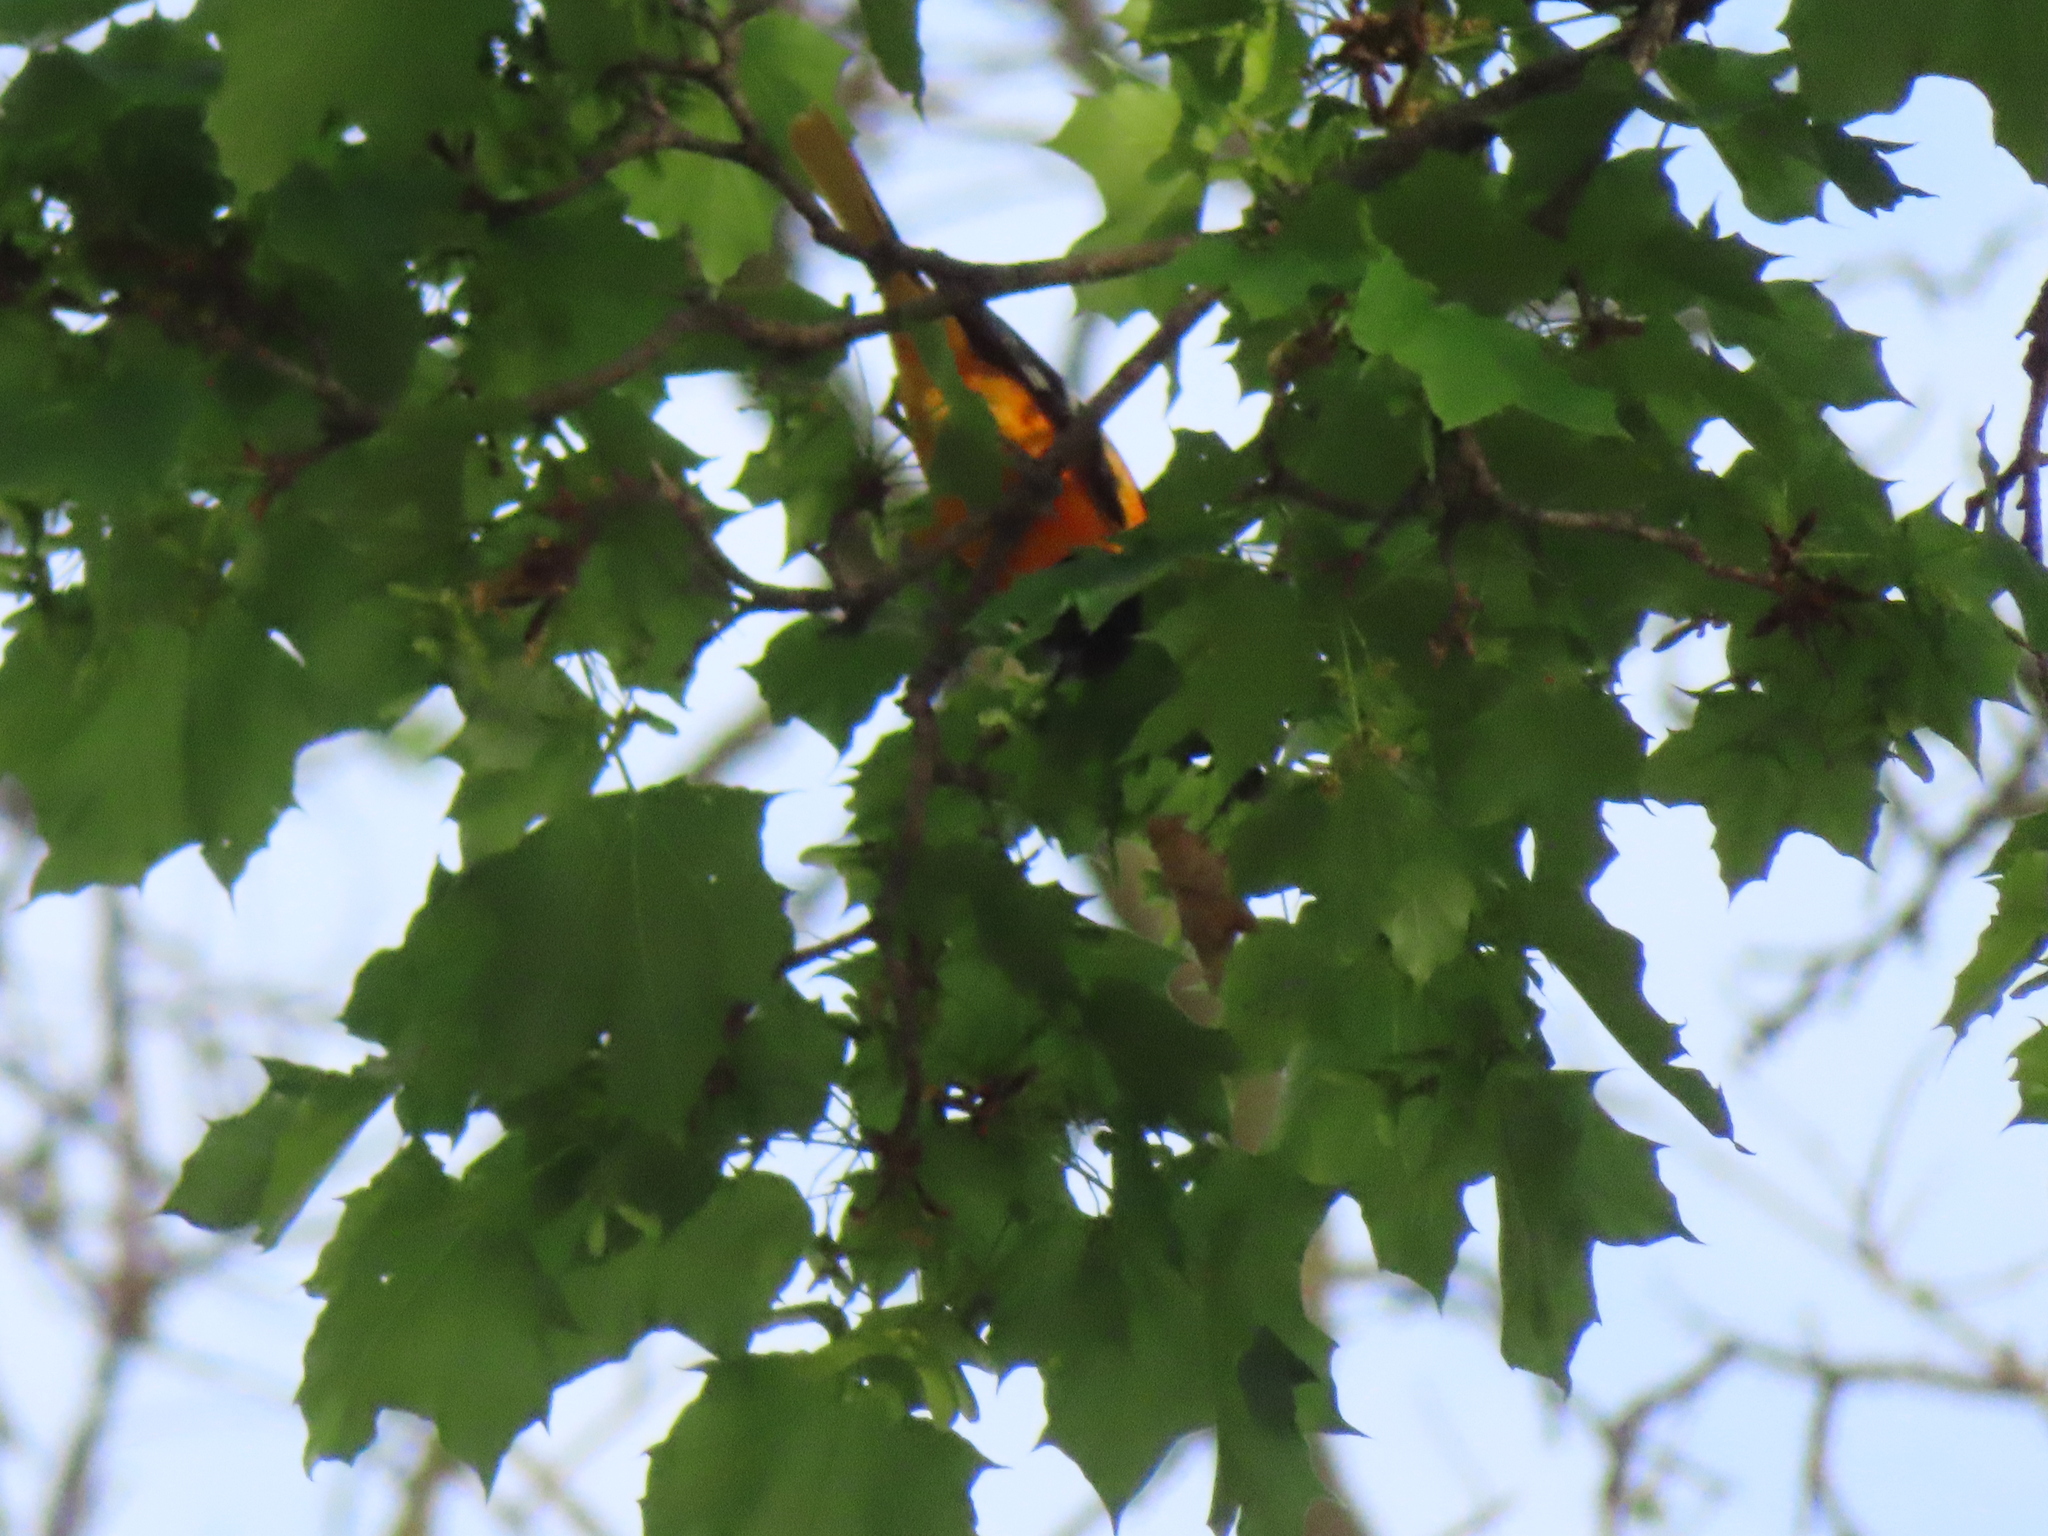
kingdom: Animalia
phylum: Chordata
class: Aves
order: Passeriformes
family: Icteridae
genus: Icterus
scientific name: Icterus galbula
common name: Baltimore oriole
